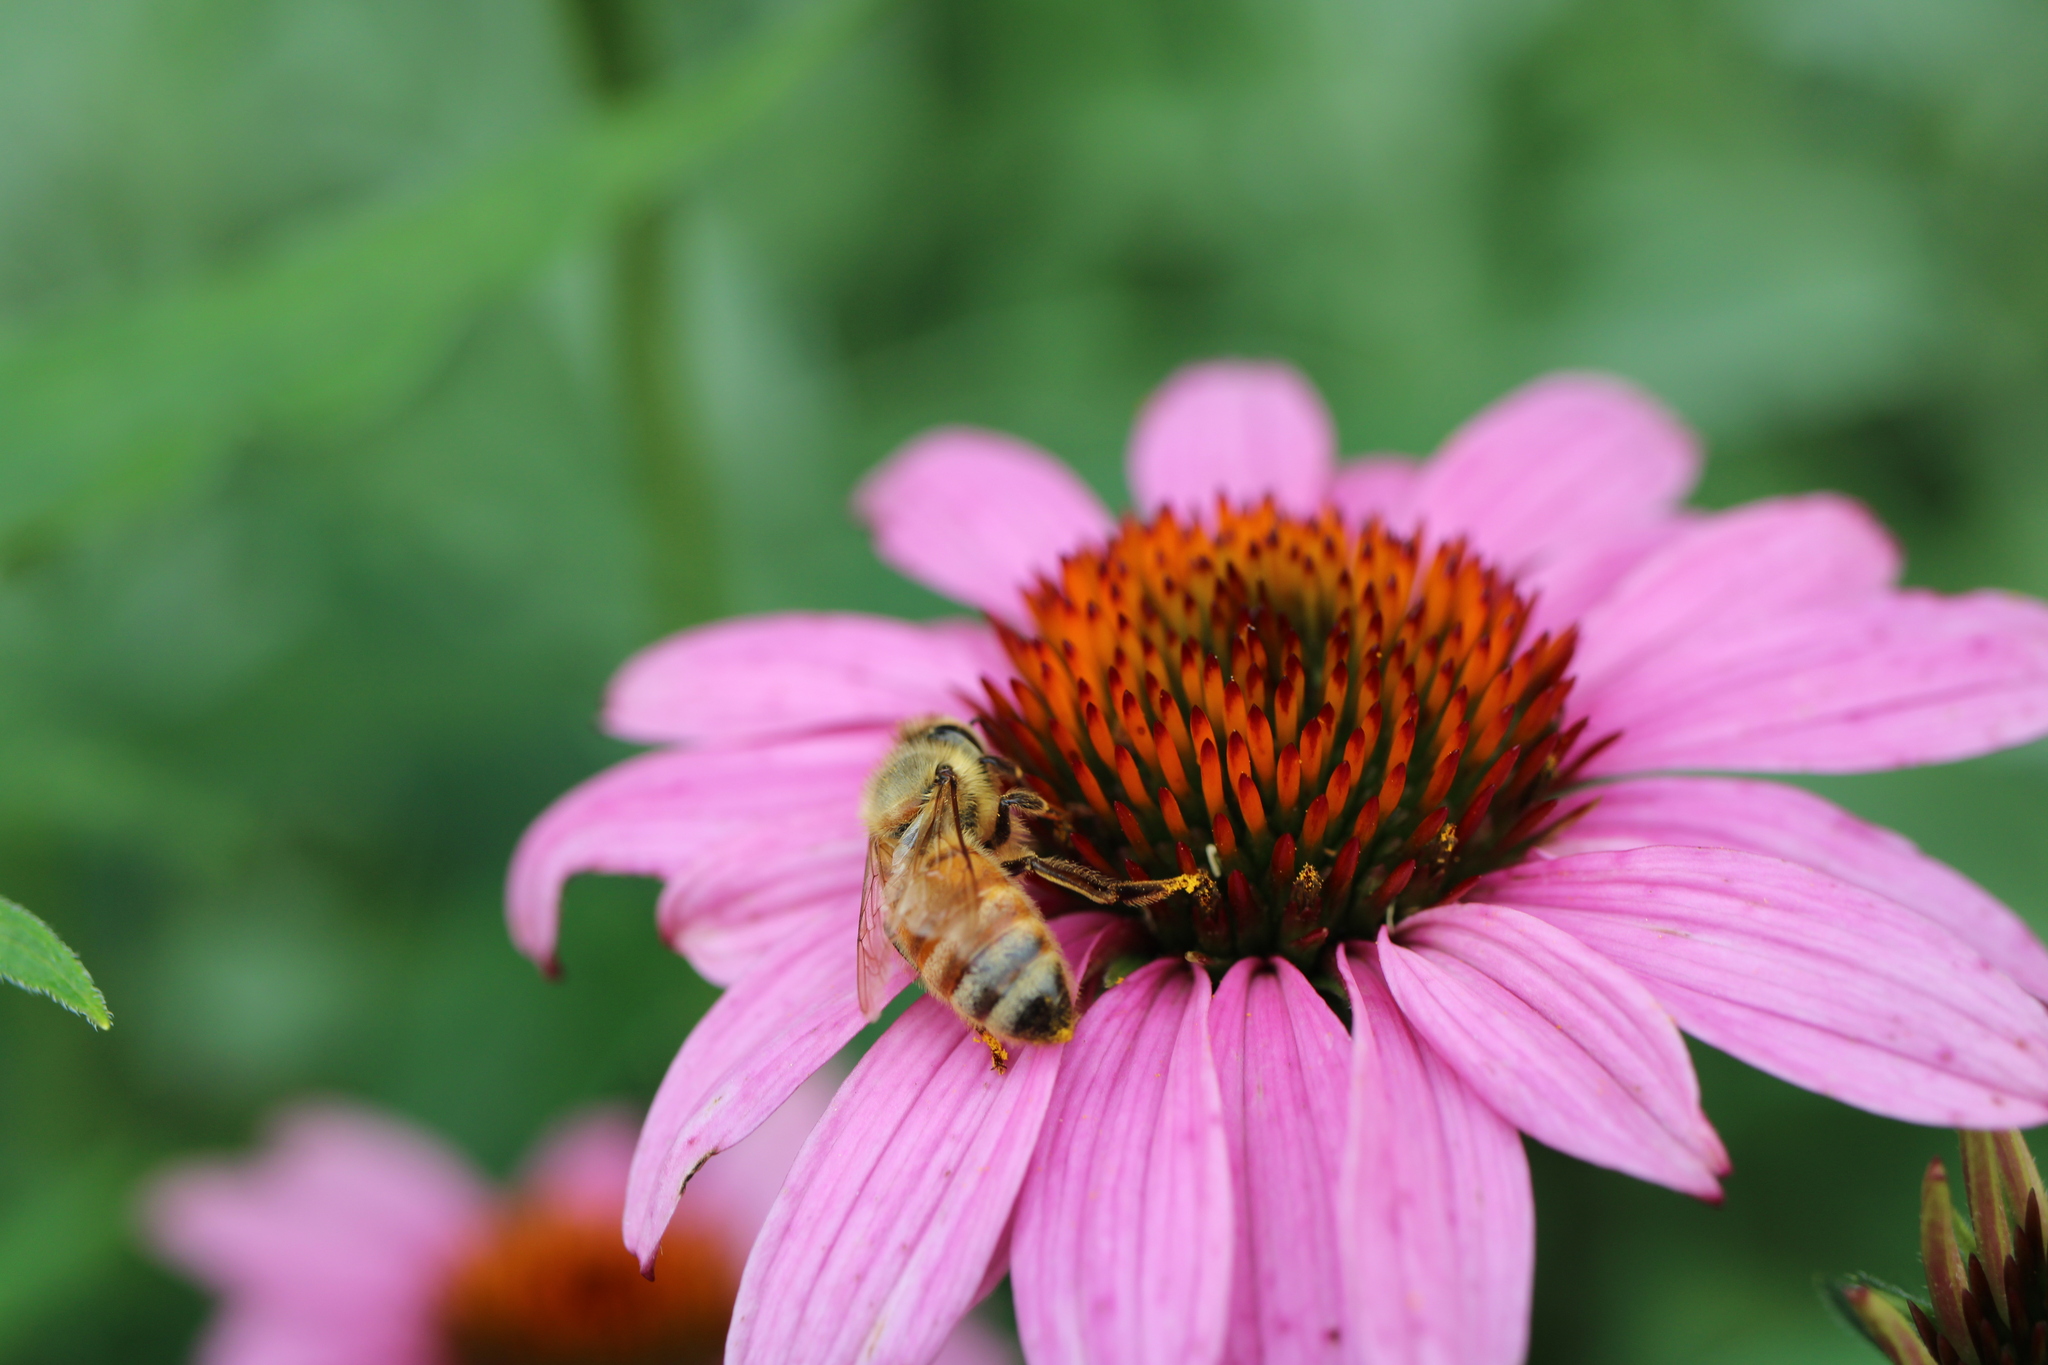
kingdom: Animalia
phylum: Arthropoda
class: Insecta
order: Hymenoptera
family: Apidae
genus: Apis
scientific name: Apis mellifera
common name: Honey bee
